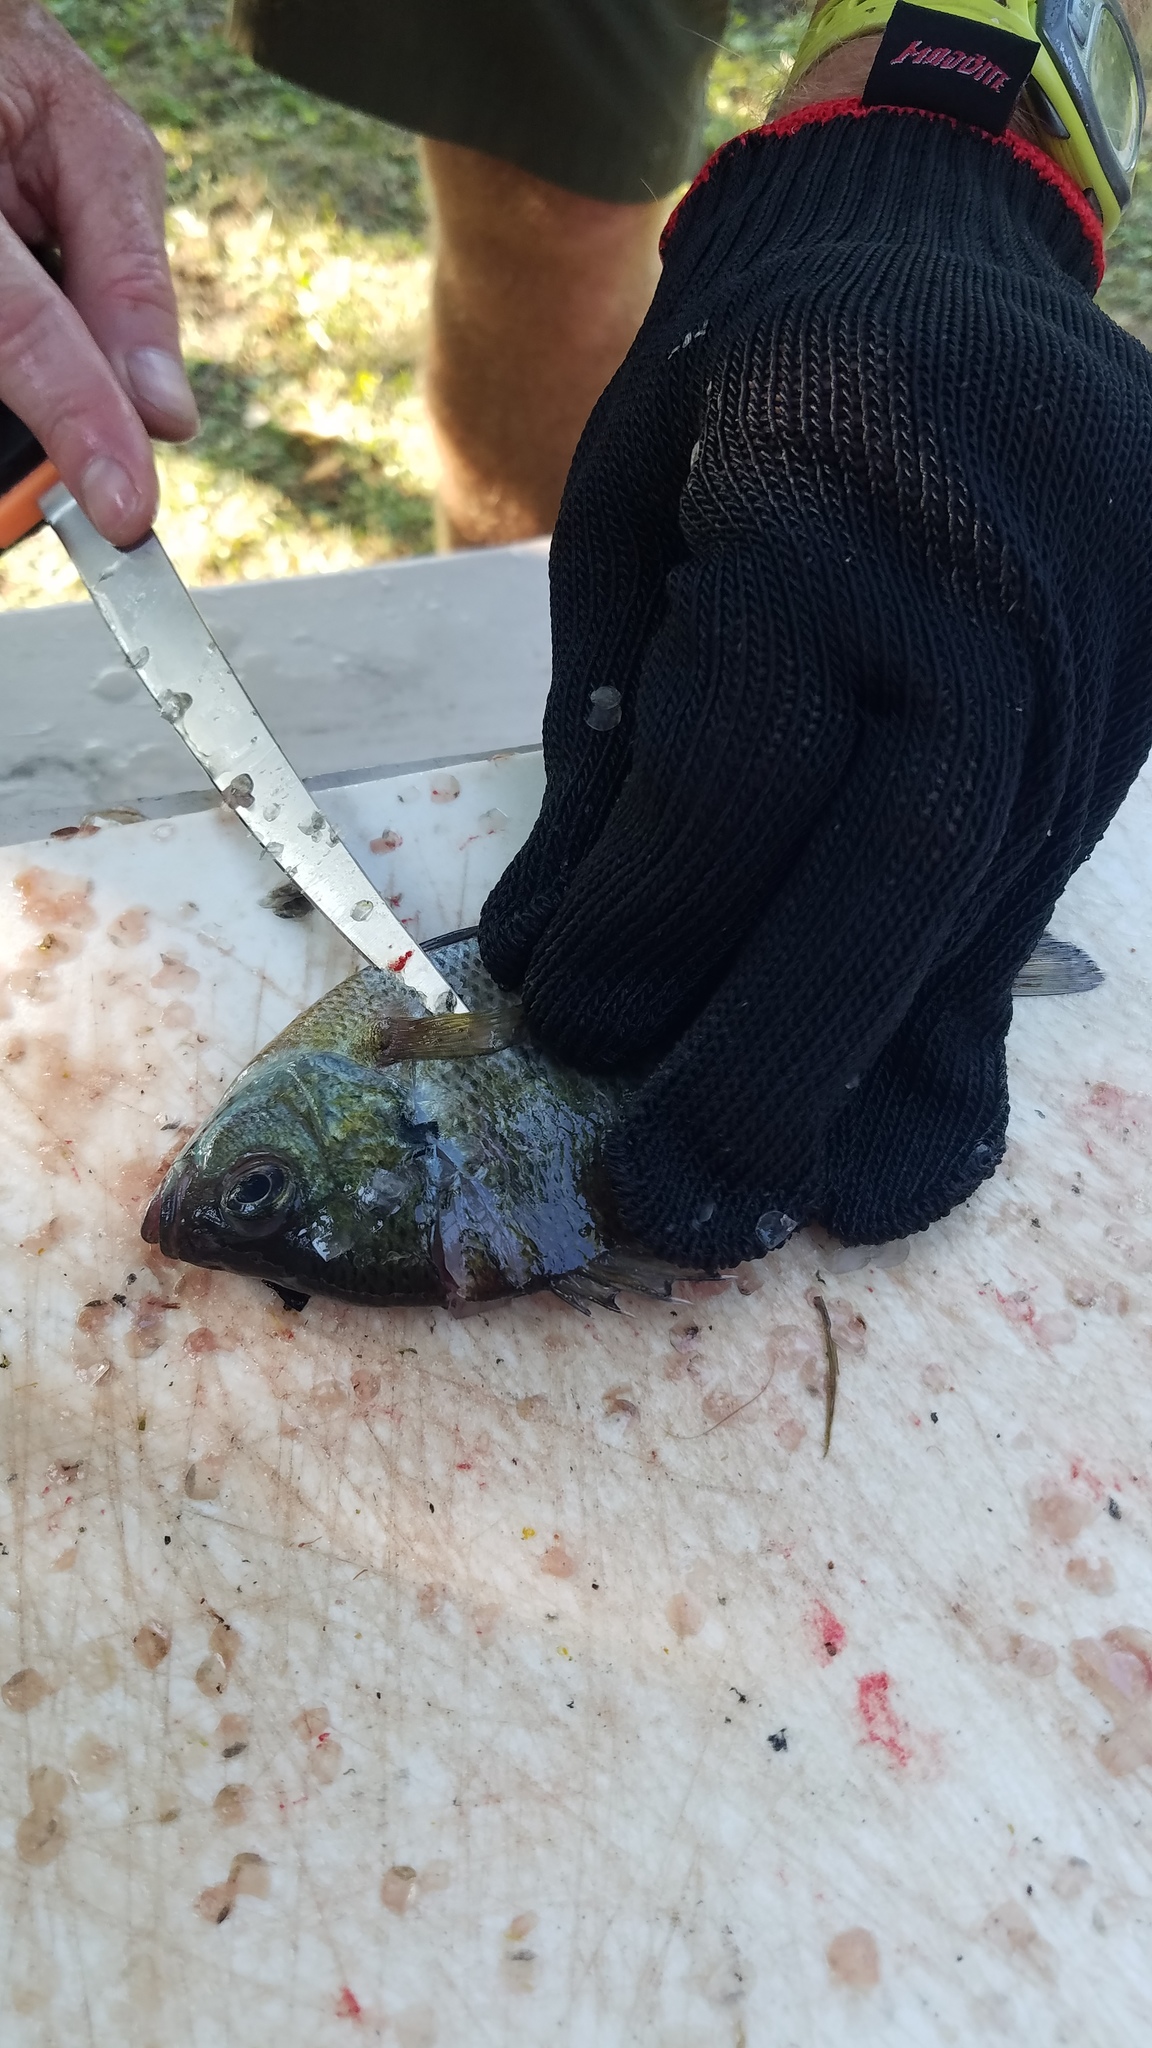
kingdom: Animalia
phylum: Chordata
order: Perciformes
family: Centrarchidae
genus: Lepomis
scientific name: Lepomis macrochirus
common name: Bluegill
